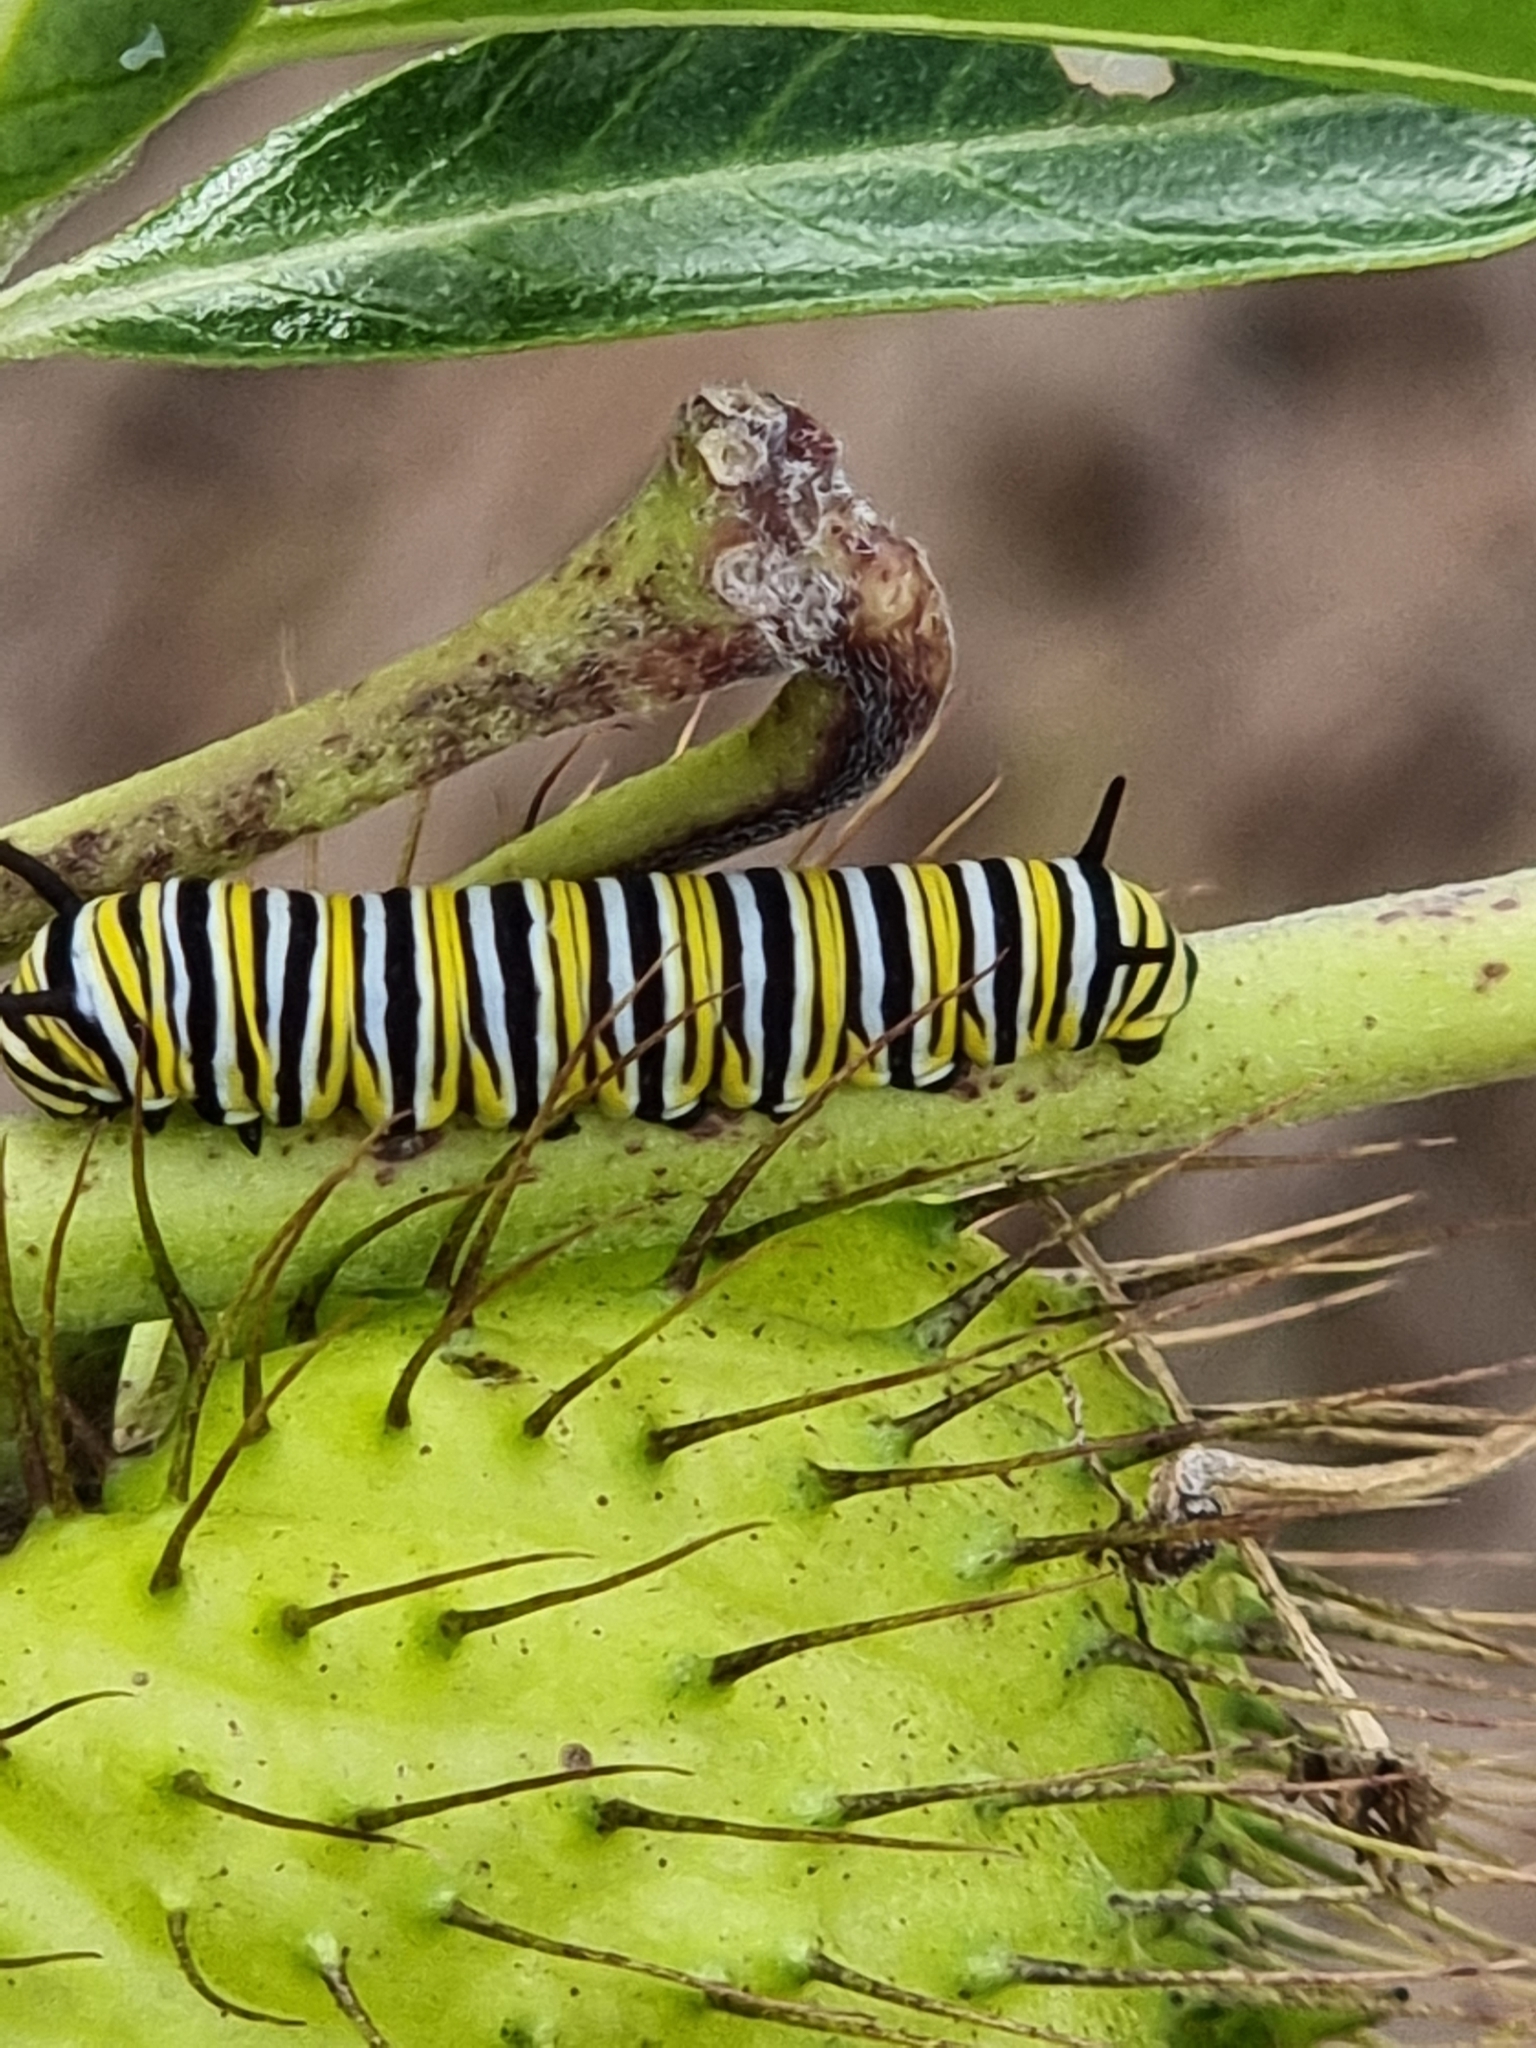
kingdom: Animalia
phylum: Arthropoda
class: Insecta
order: Lepidoptera
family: Nymphalidae
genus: Danaus
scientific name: Danaus plexippus
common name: Monarch
